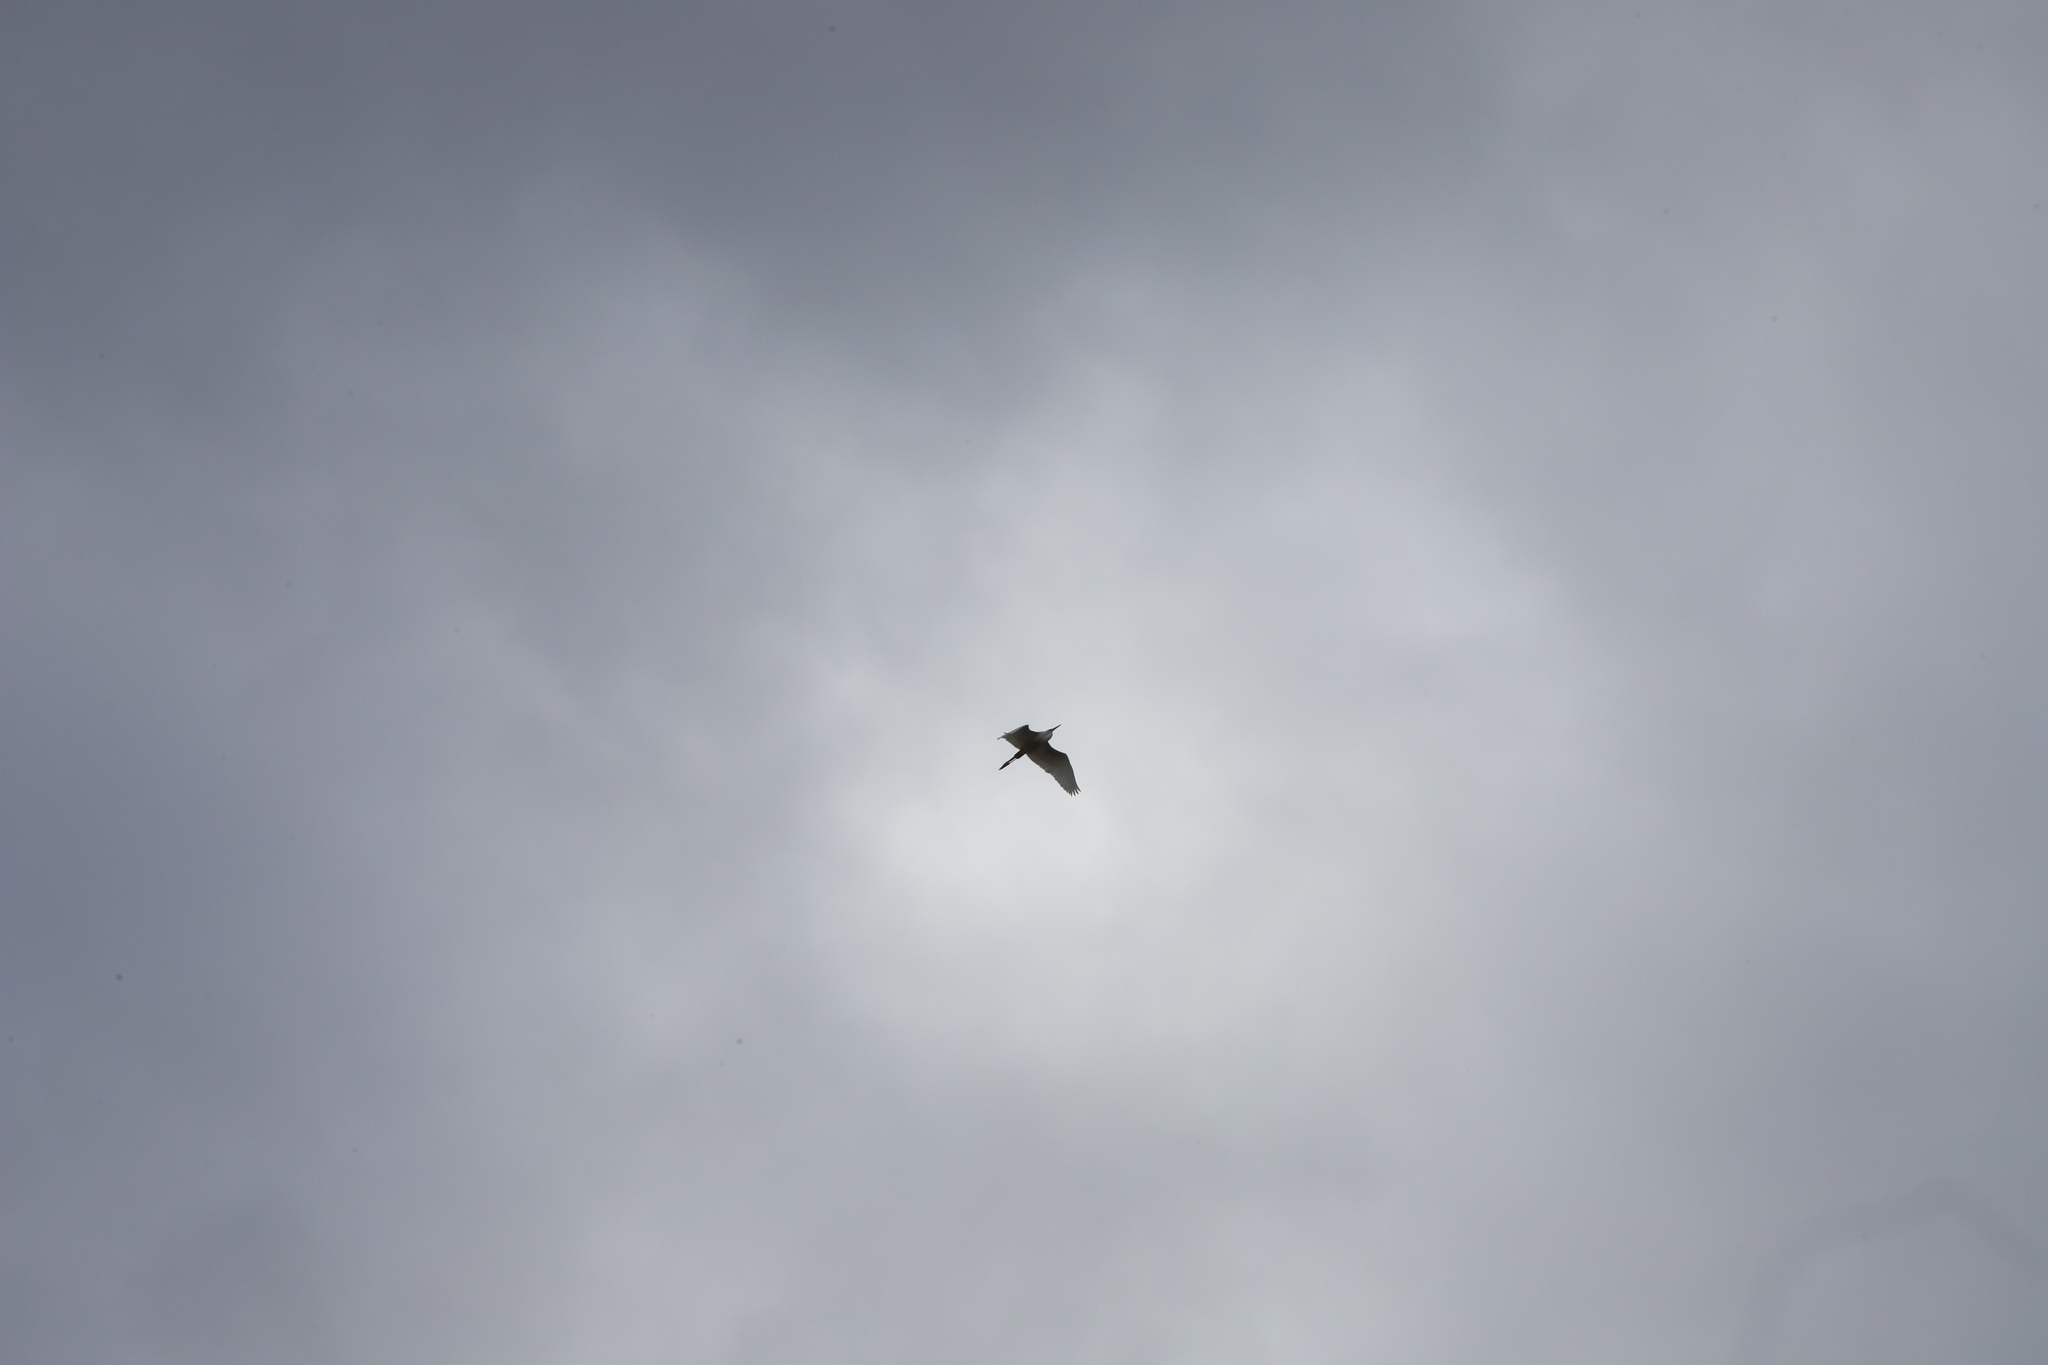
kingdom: Animalia
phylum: Chordata
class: Aves
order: Pelecaniformes
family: Ardeidae
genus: Ardea
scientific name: Ardea alba
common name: Great egret
